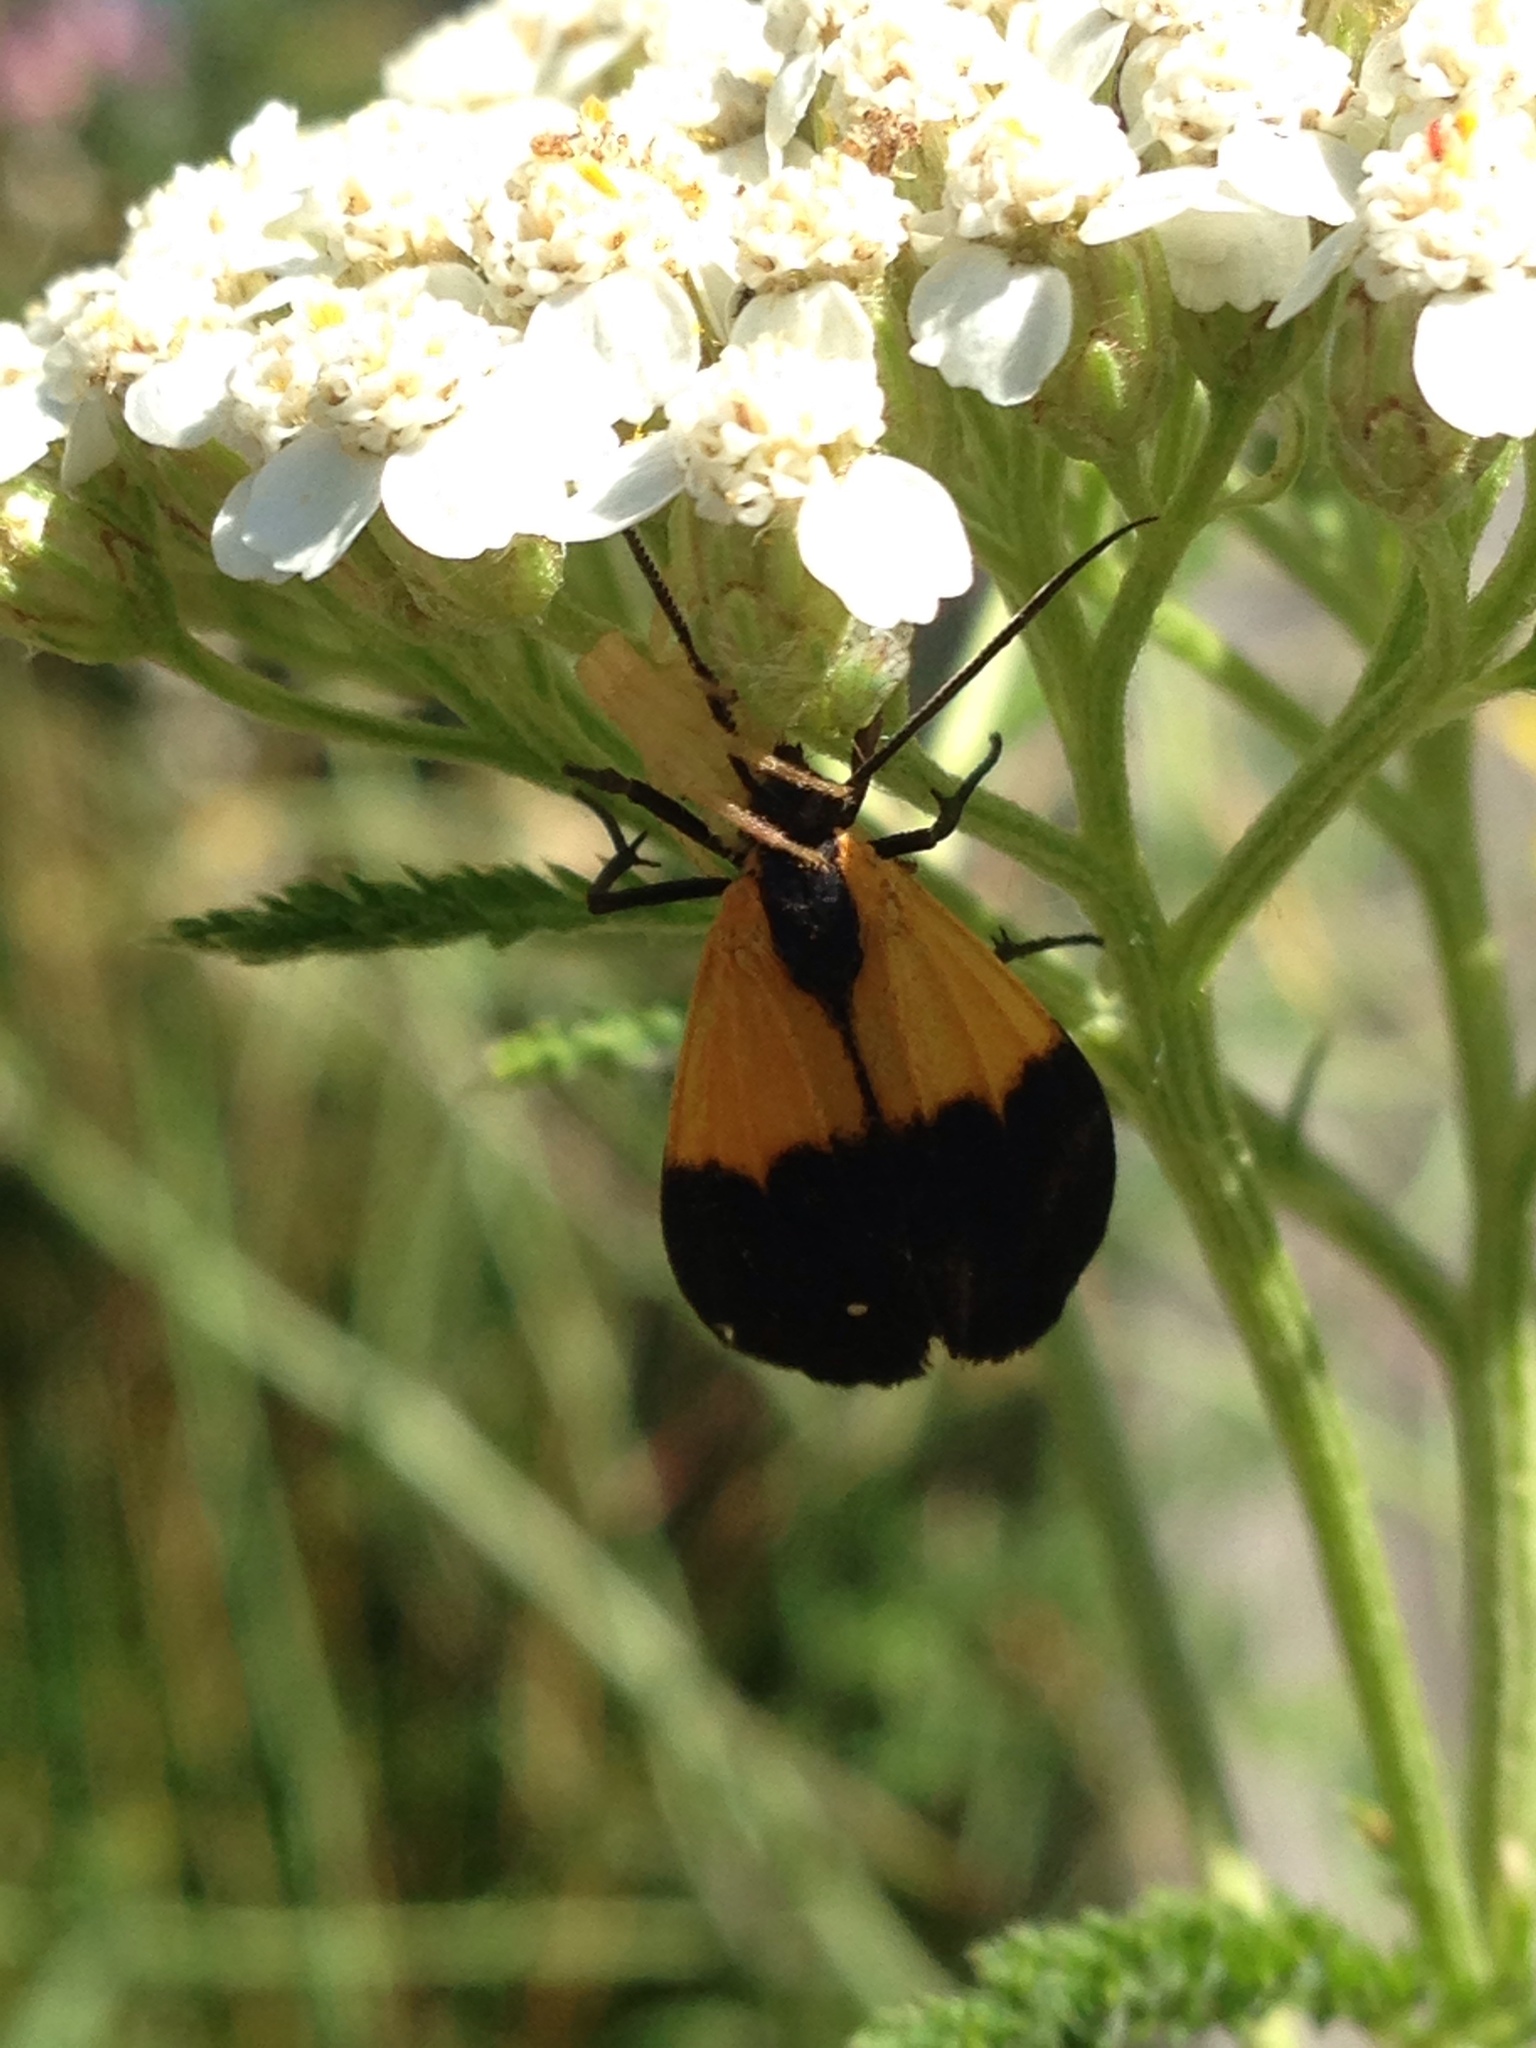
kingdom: Animalia
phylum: Arthropoda
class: Insecta
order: Lepidoptera
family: Erebidae
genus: Lycomorpha
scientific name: Lycomorpha pholus
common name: Black-and-yellow lichen moth
